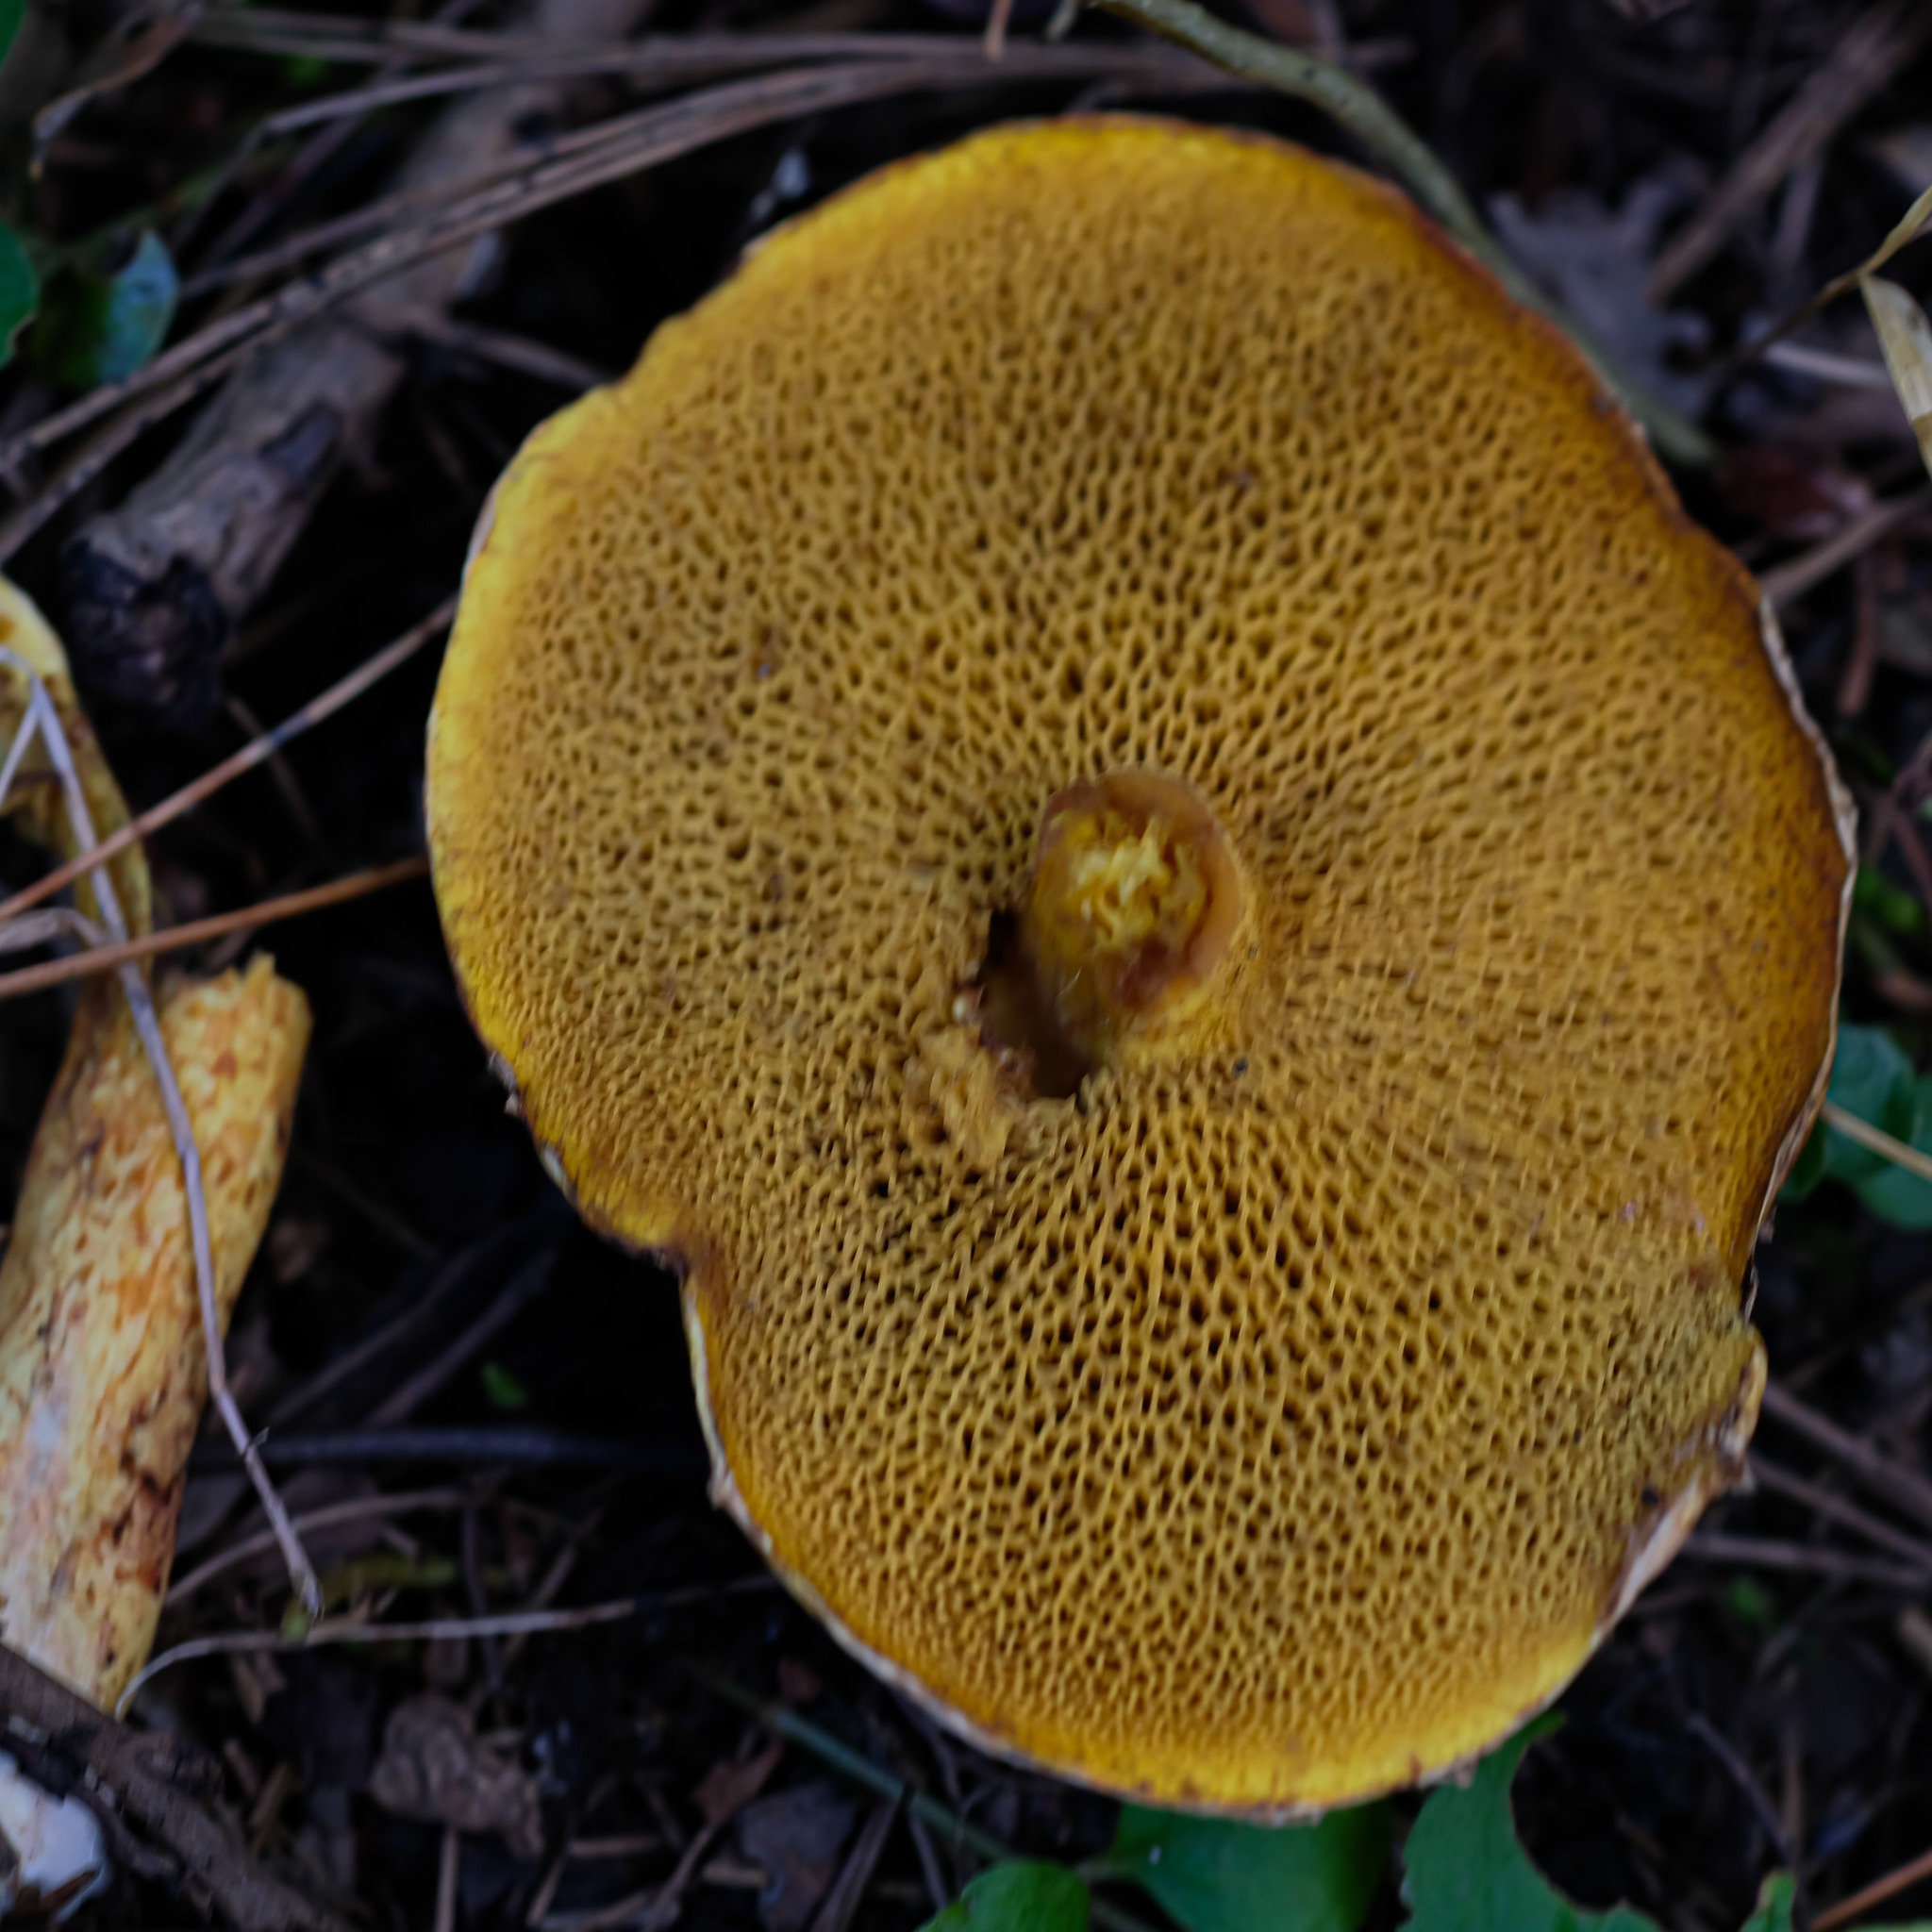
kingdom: Fungi
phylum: Basidiomycota
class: Agaricomycetes
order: Boletales
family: Suillaceae
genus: Suillus
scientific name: Suillus americanus
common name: Chicken fat mushroom
